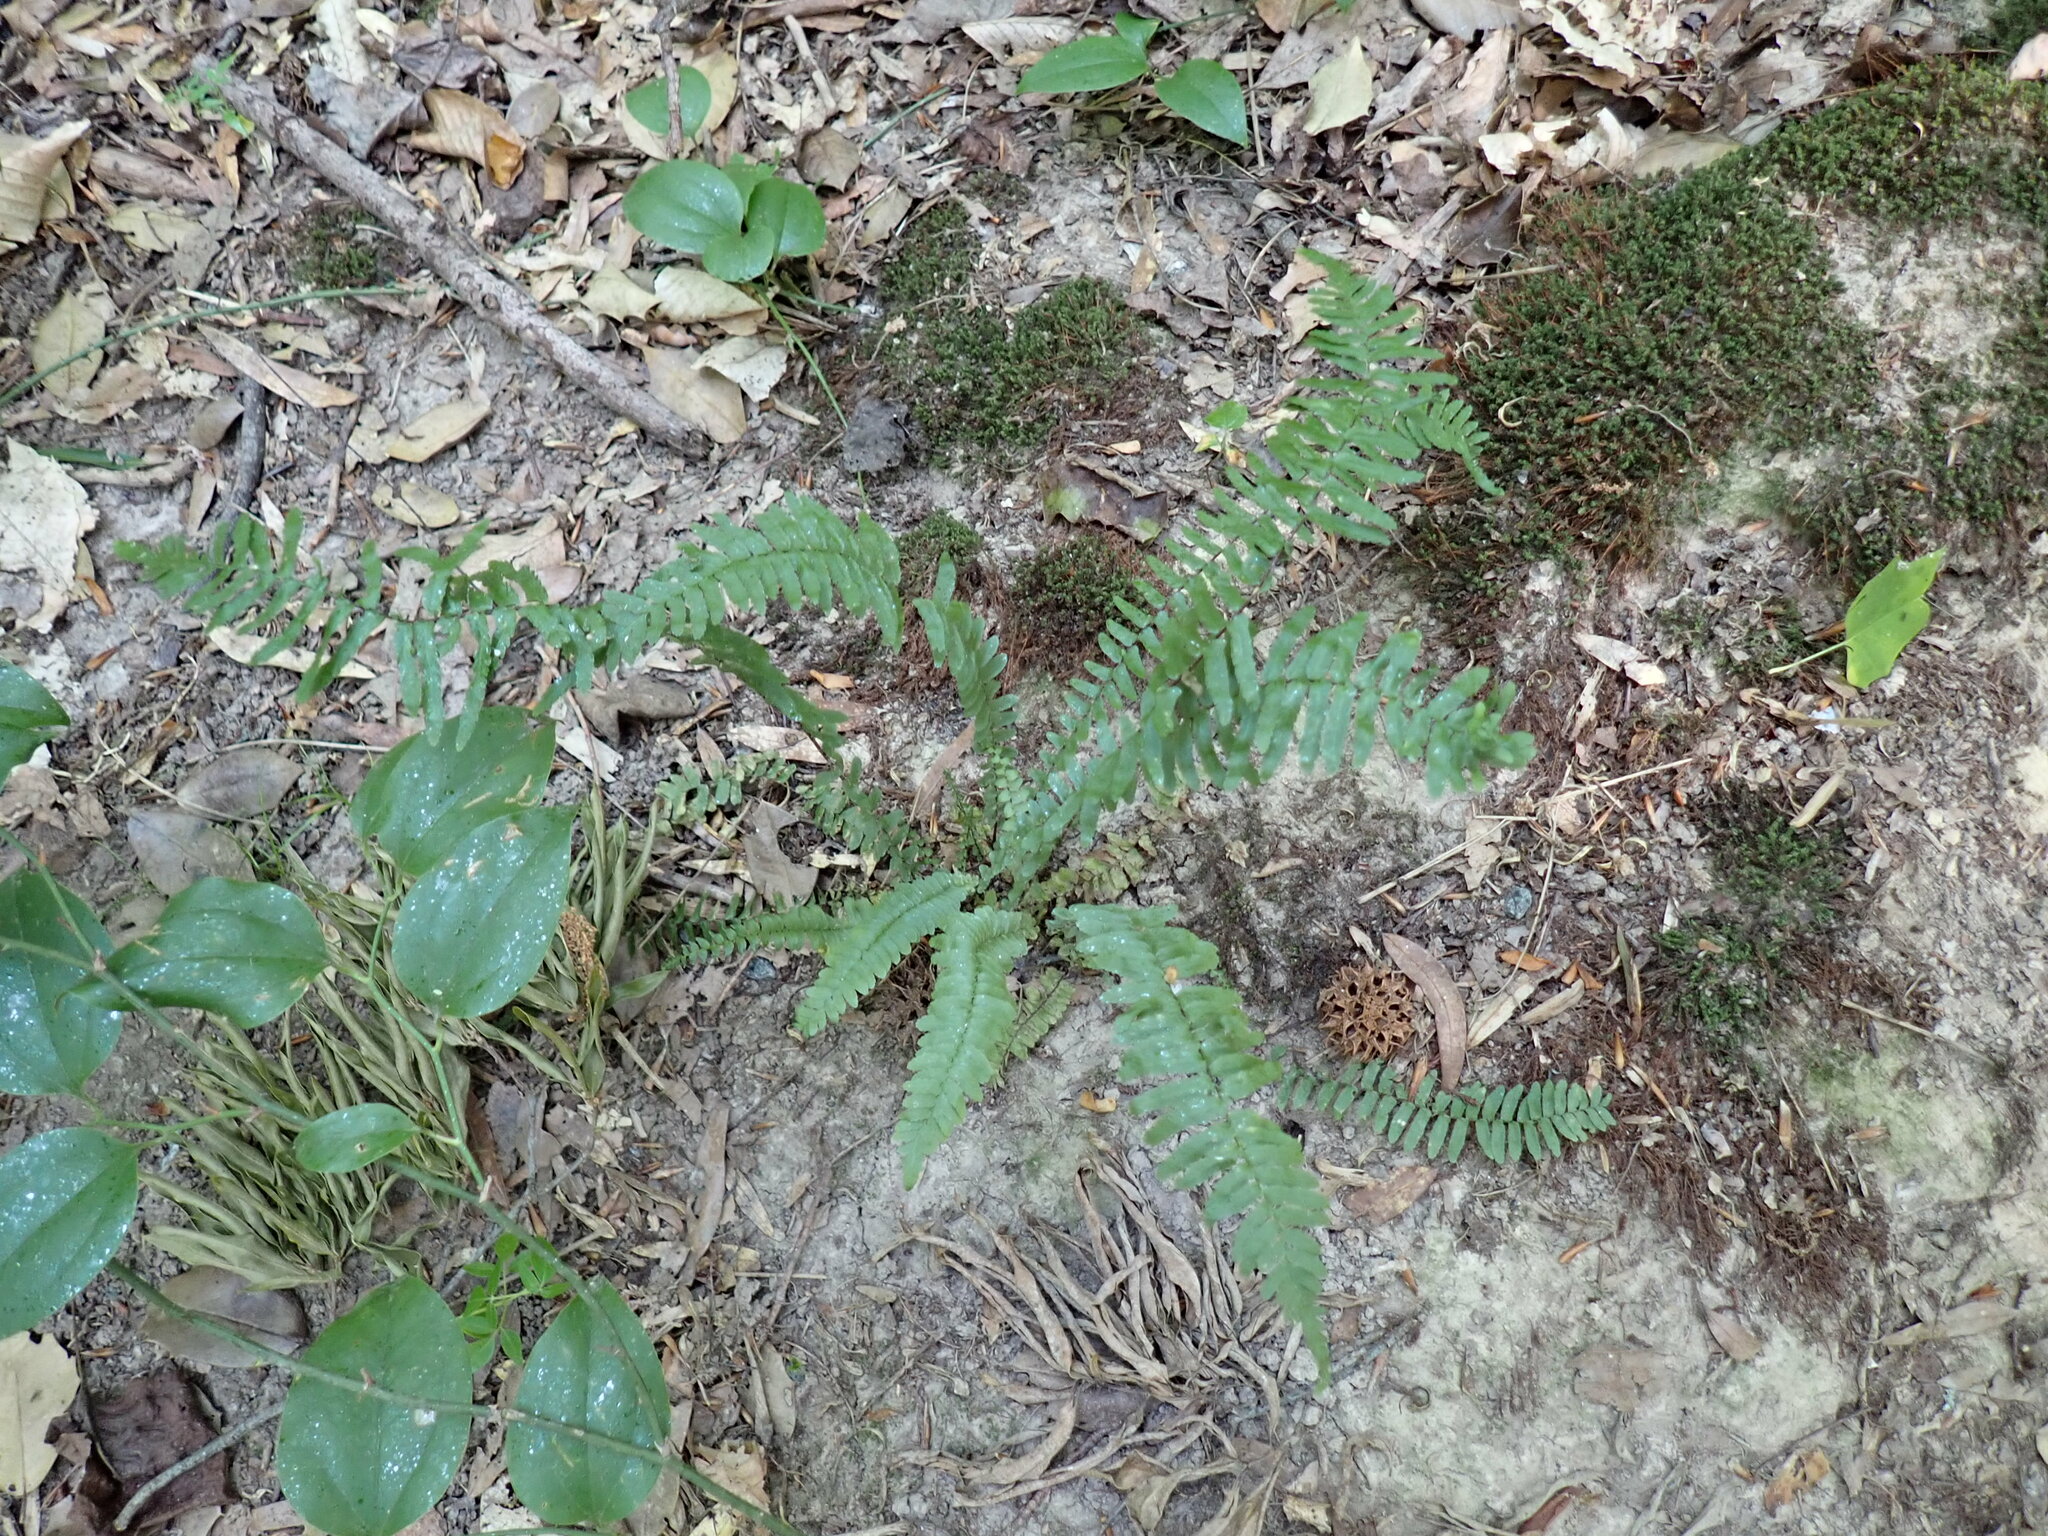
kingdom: Plantae
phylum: Tracheophyta
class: Polypodiopsida
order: Polypodiales
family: Aspleniaceae
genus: Asplenium
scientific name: Asplenium platyneuron
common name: Ebony spleenwort
